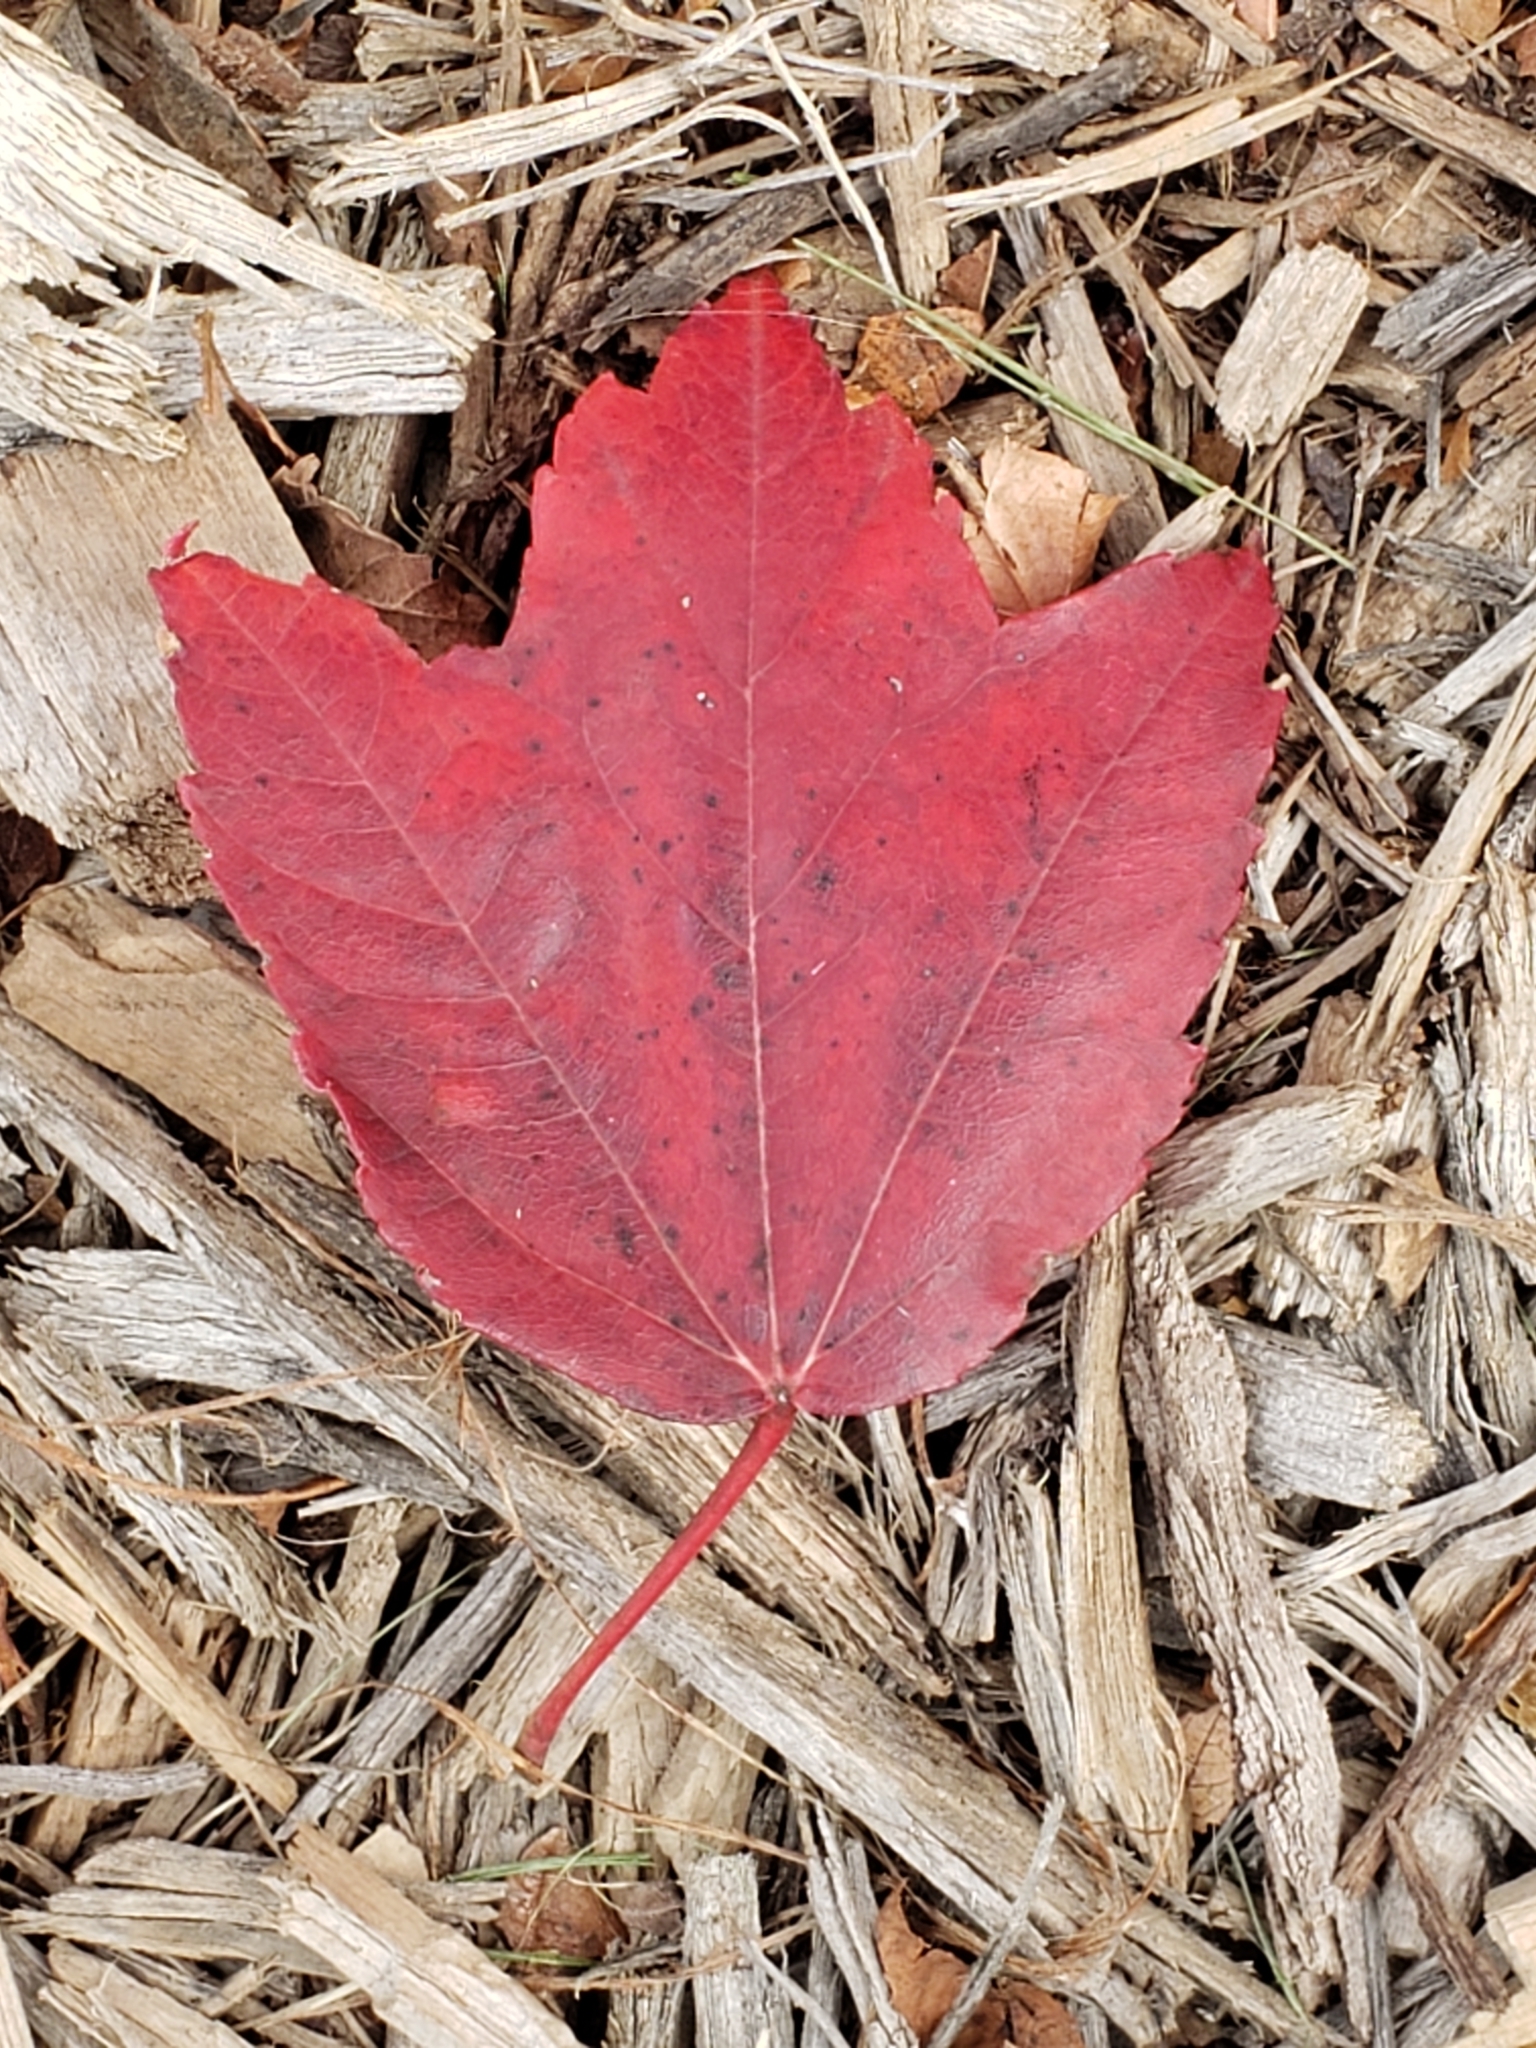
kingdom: Plantae
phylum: Tracheophyta
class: Magnoliopsida
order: Sapindales
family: Sapindaceae
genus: Acer
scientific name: Acer rubrum
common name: Red maple
